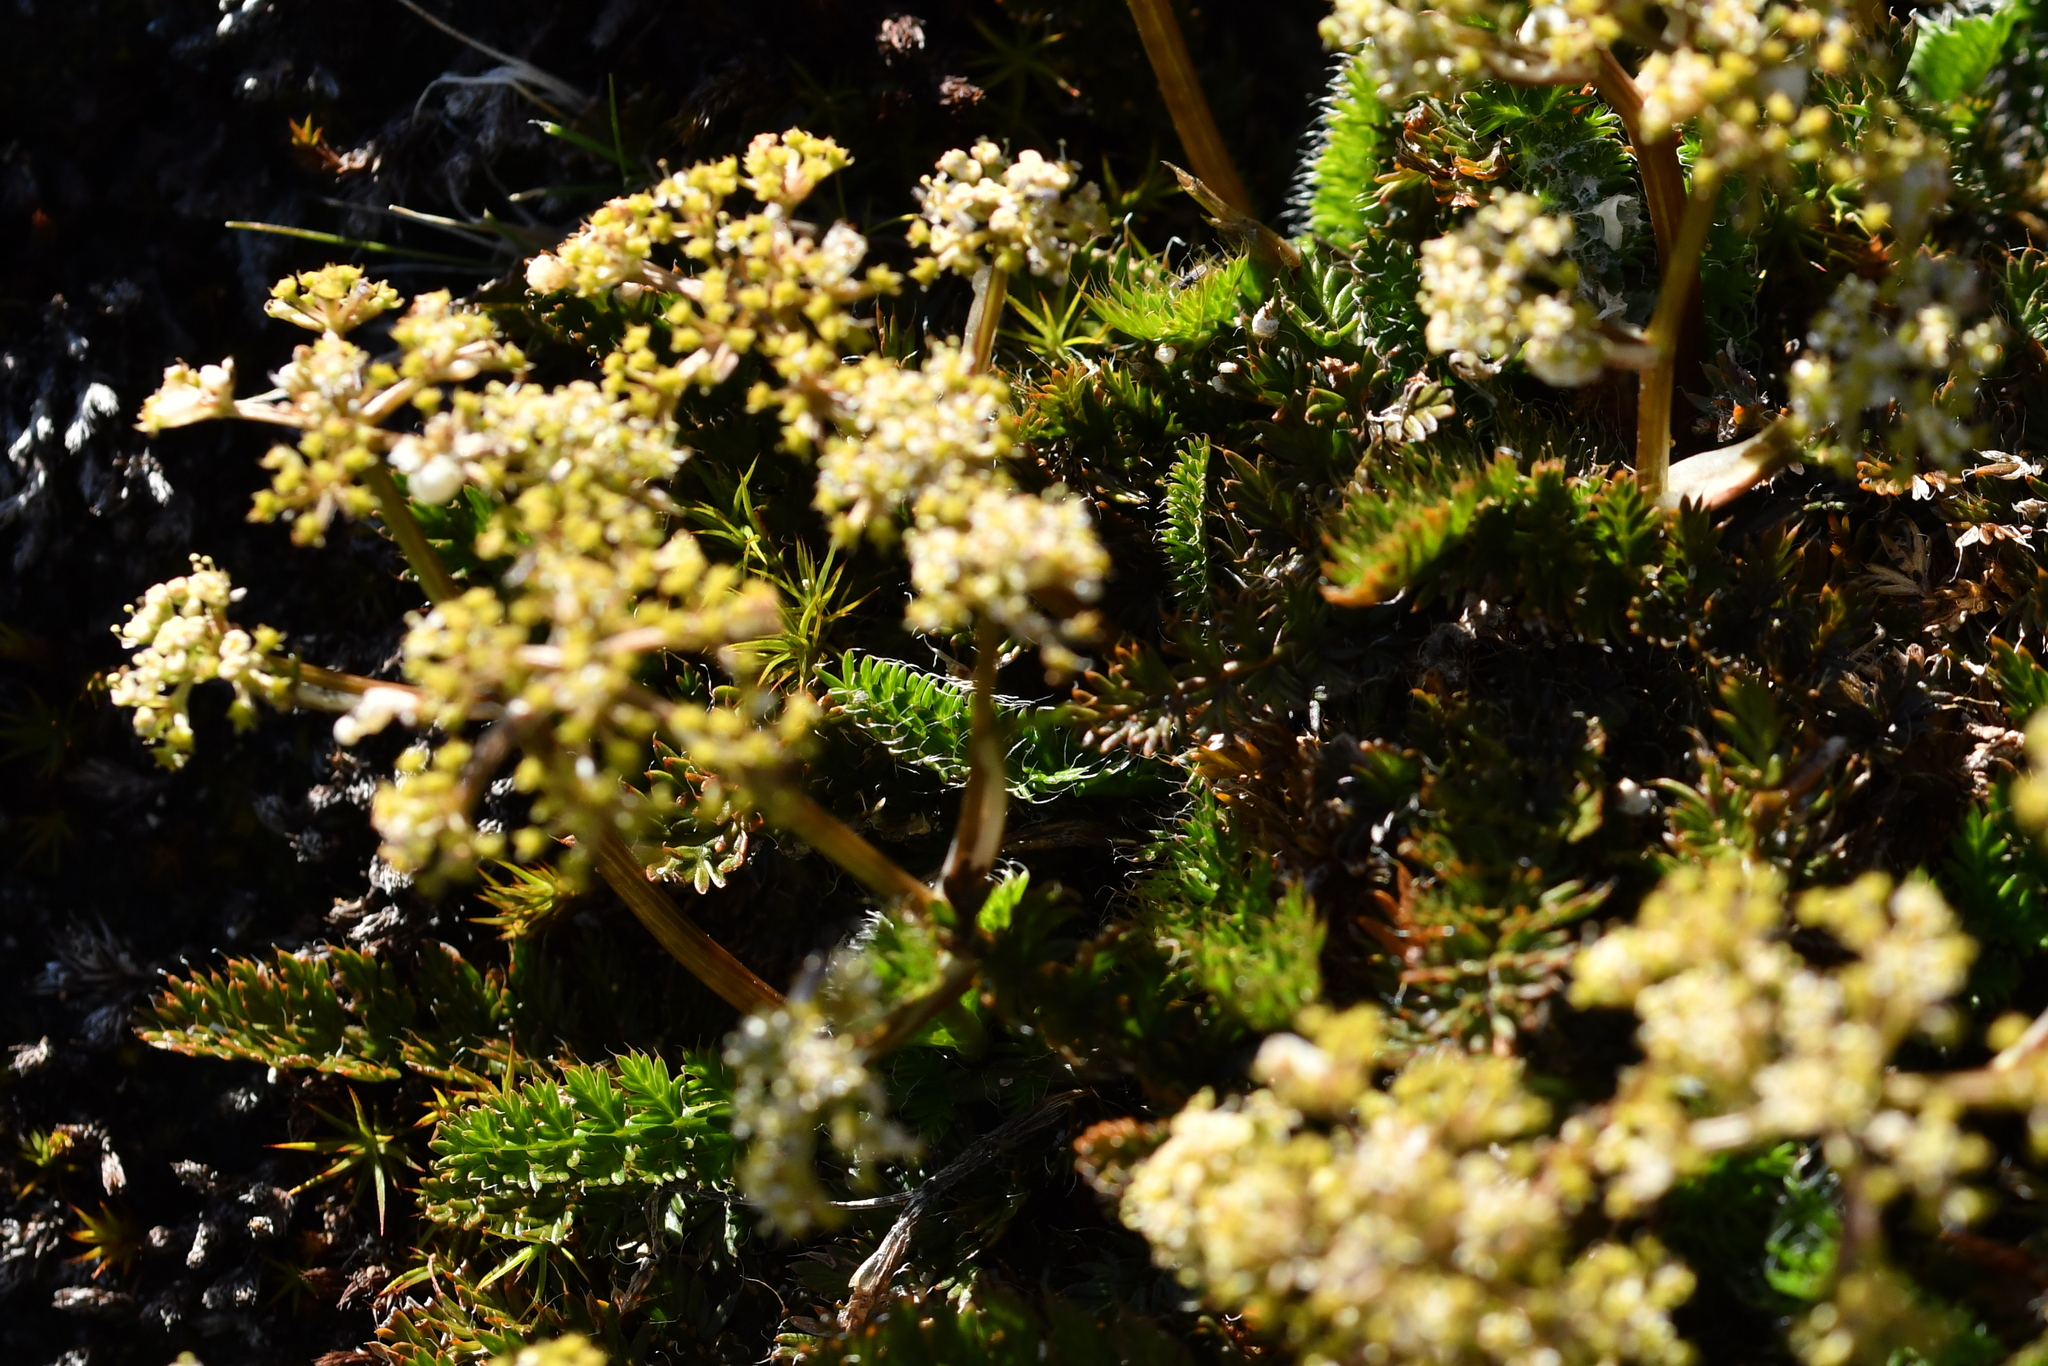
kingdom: Plantae
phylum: Tracheophyta
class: Magnoliopsida
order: Apiales
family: Apiaceae
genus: Anisotome
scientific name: Anisotome flexuosa
